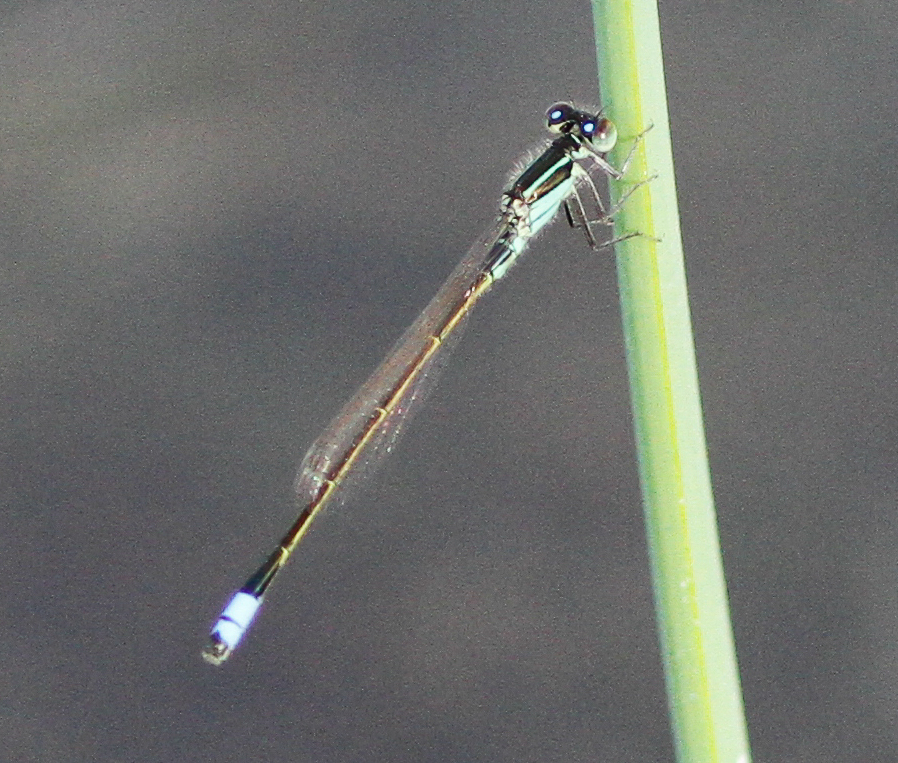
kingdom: Animalia
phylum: Arthropoda
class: Insecta
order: Odonata
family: Coenagrionidae
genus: Ischnura
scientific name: Ischnura ramburii
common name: Rambur's forktail
